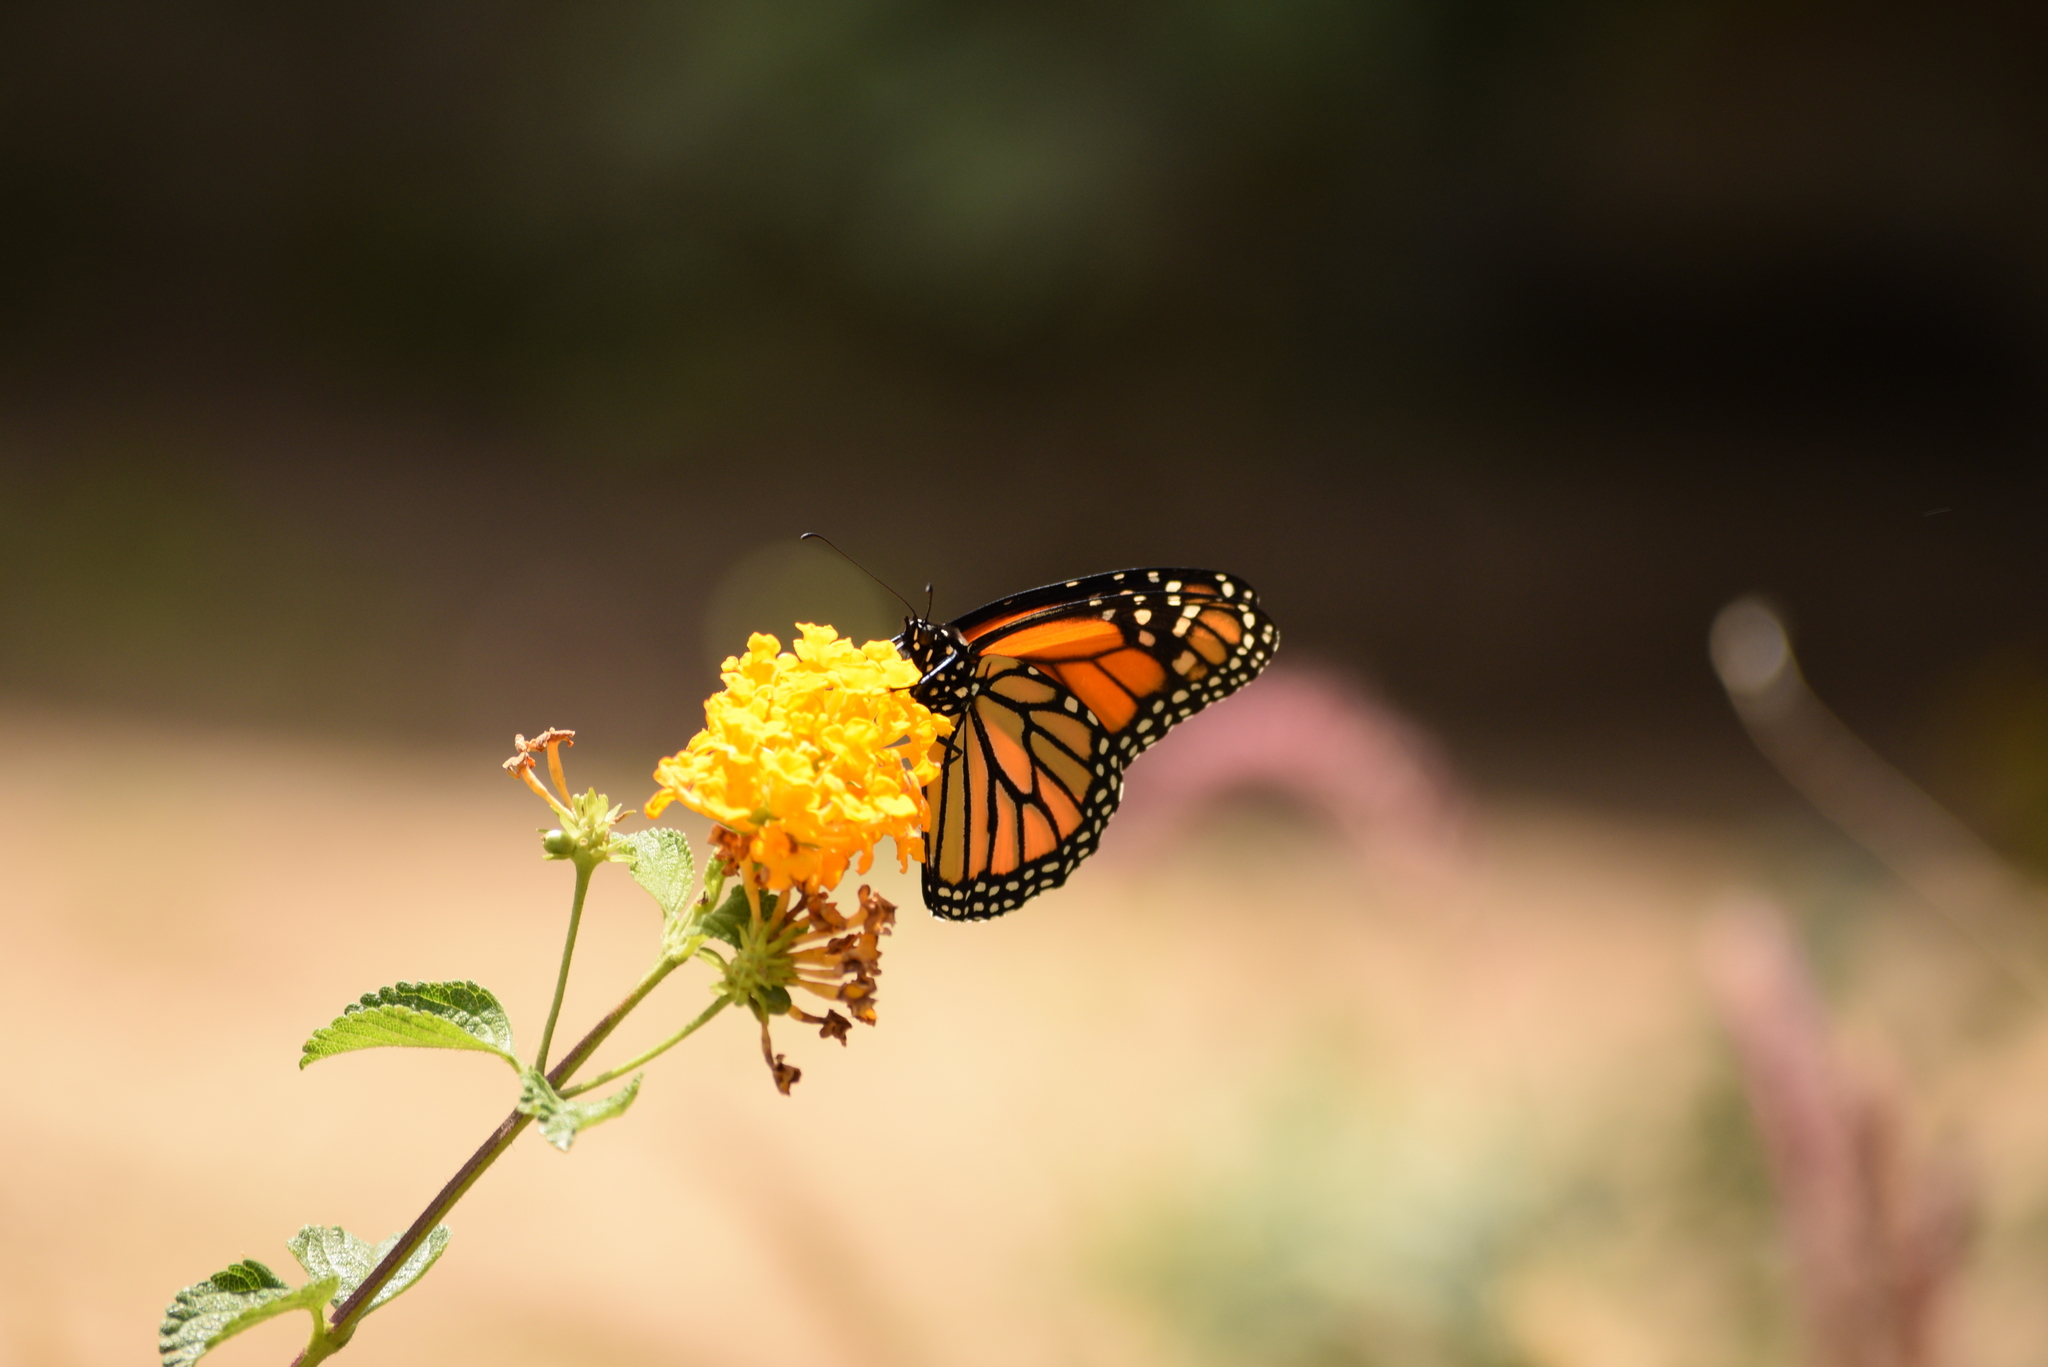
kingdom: Animalia
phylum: Arthropoda
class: Insecta
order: Lepidoptera
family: Nymphalidae
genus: Danaus
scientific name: Danaus plexippus
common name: Monarch
